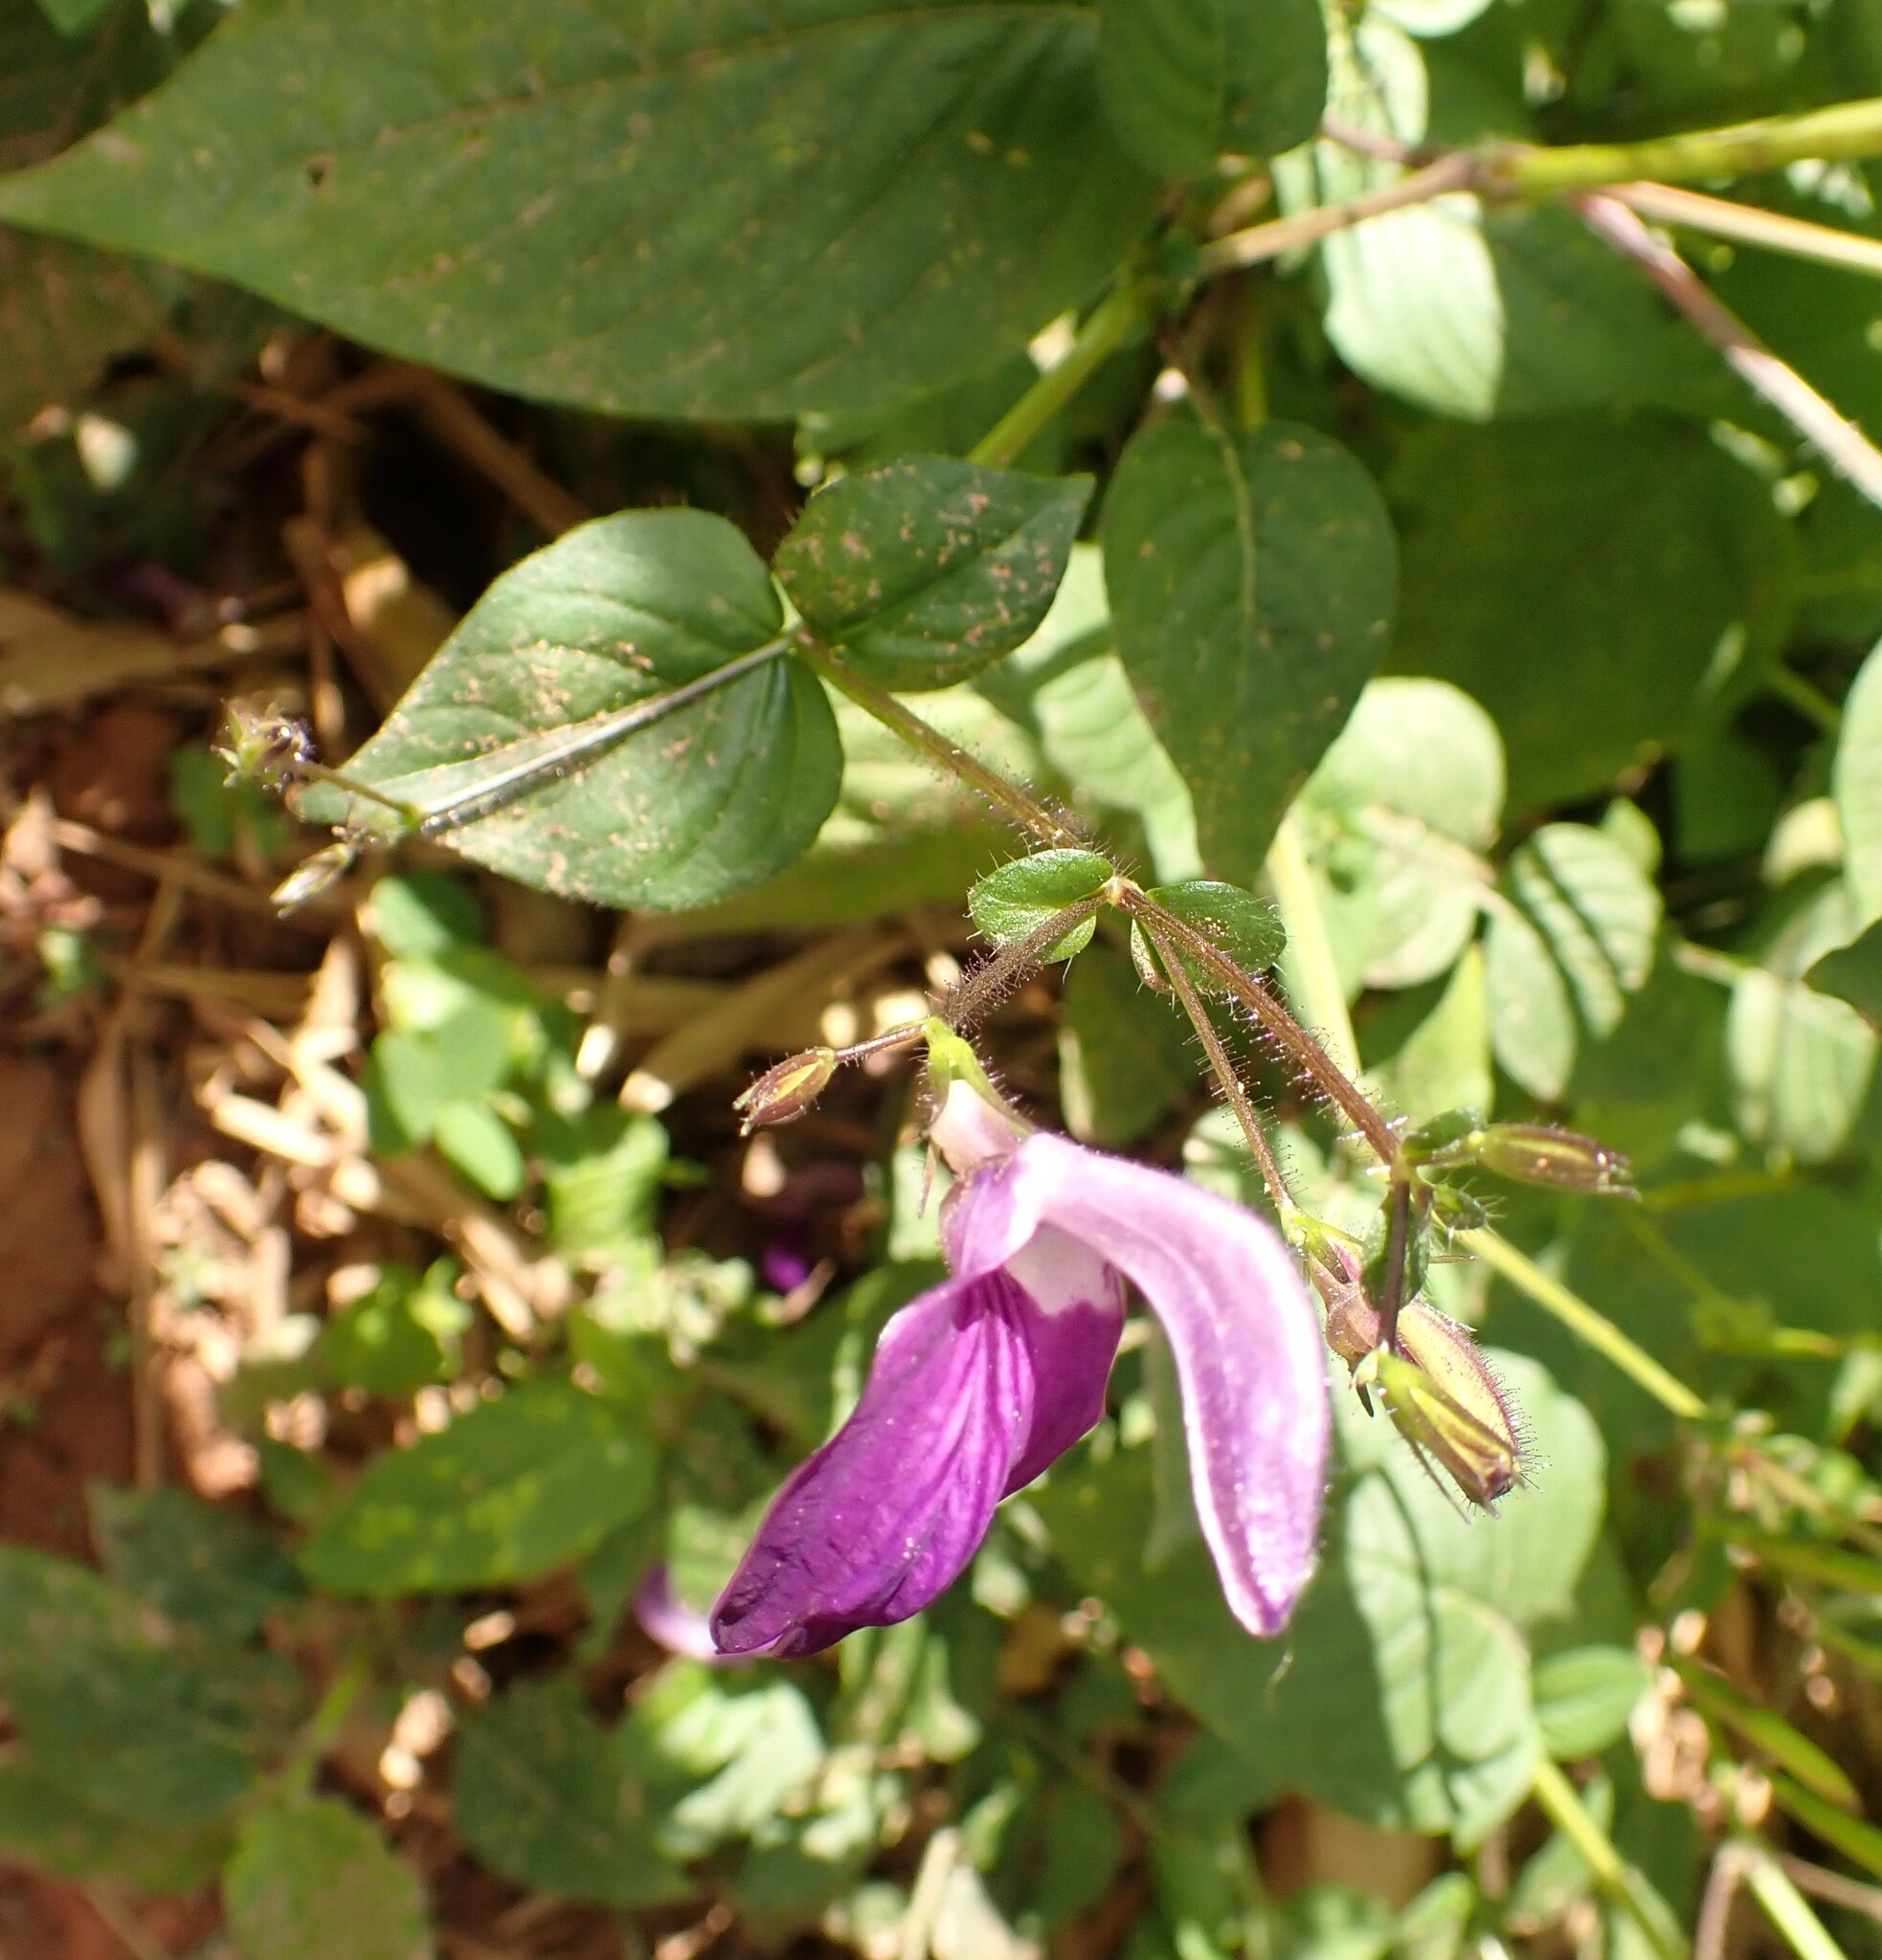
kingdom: Plantae
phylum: Tracheophyta
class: Magnoliopsida
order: Lamiales
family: Acanthaceae
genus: Brillantaisia
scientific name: Brillantaisia lamium
